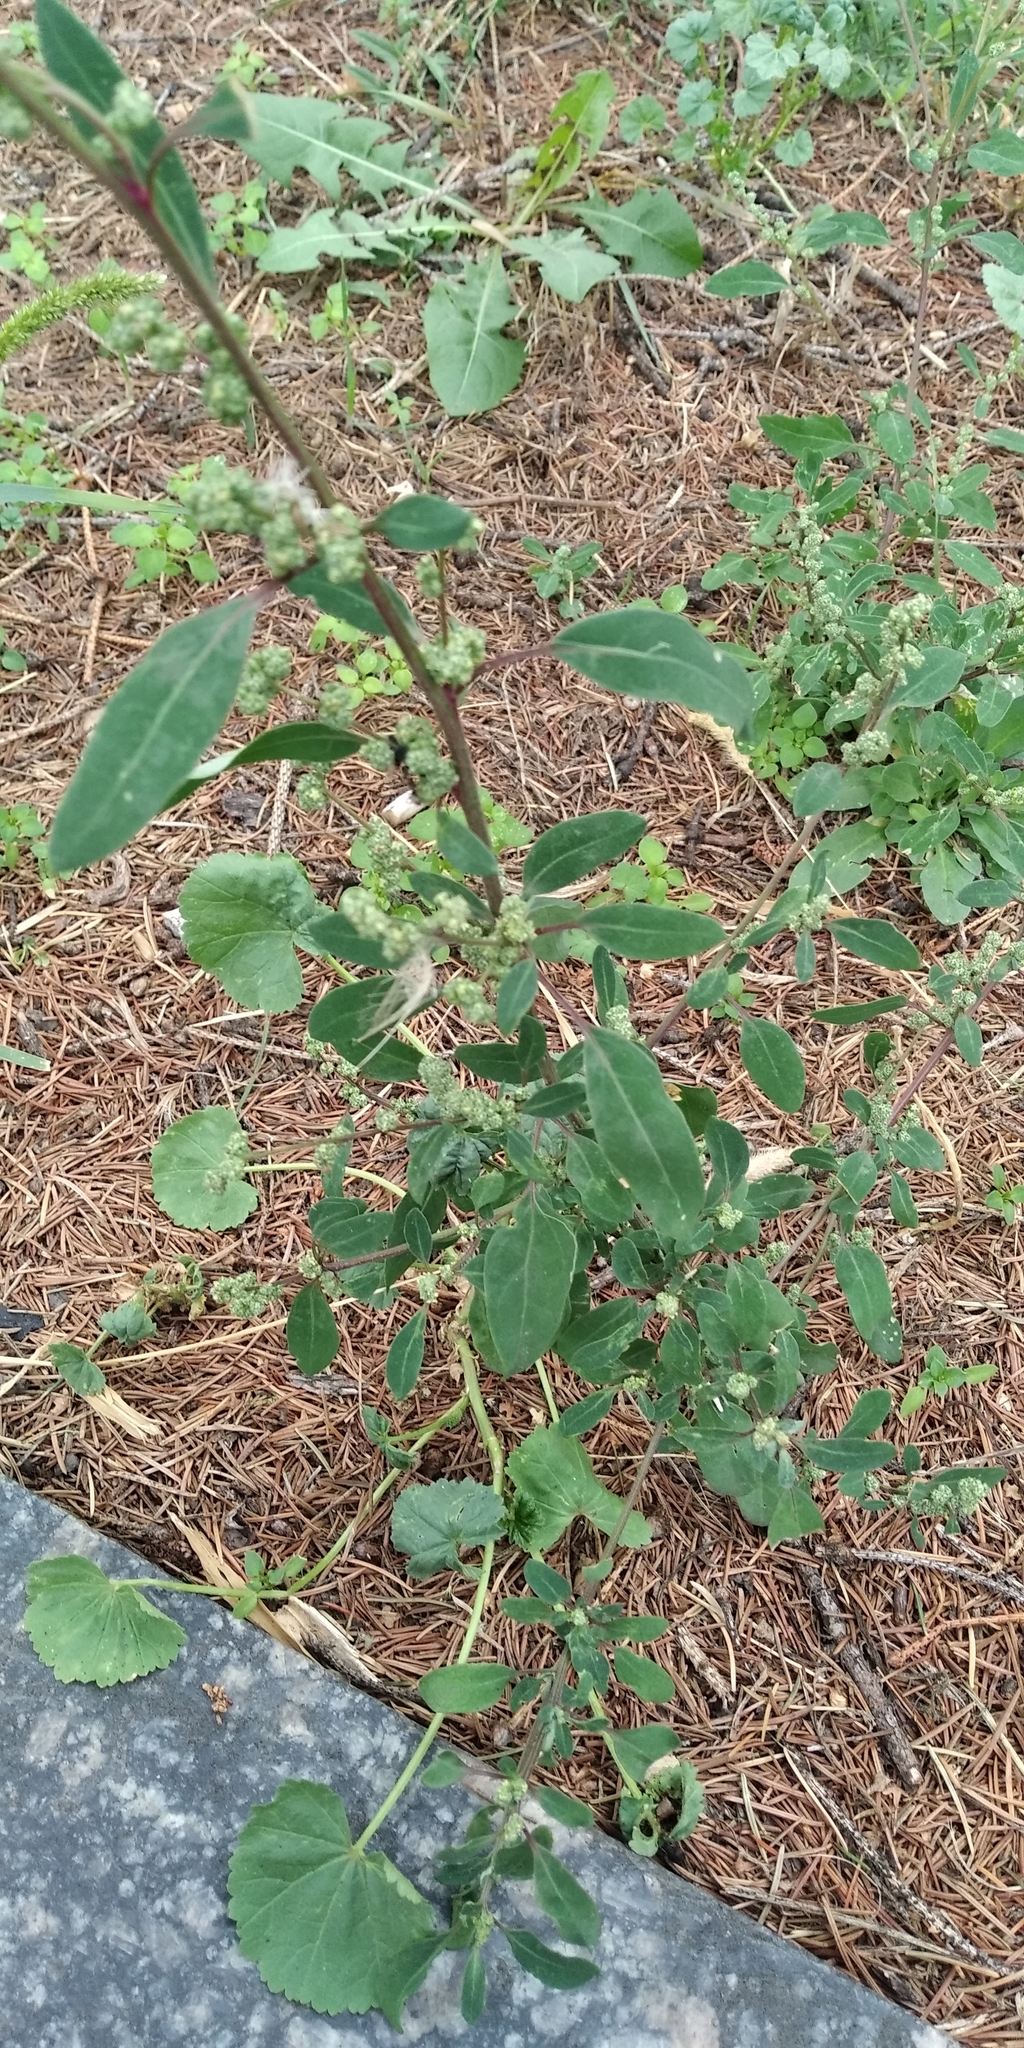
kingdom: Plantae
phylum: Tracheophyta
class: Magnoliopsida
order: Caryophyllales
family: Amaranthaceae
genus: Chenopodium
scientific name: Chenopodium betaceum
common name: Striped goosefoot
